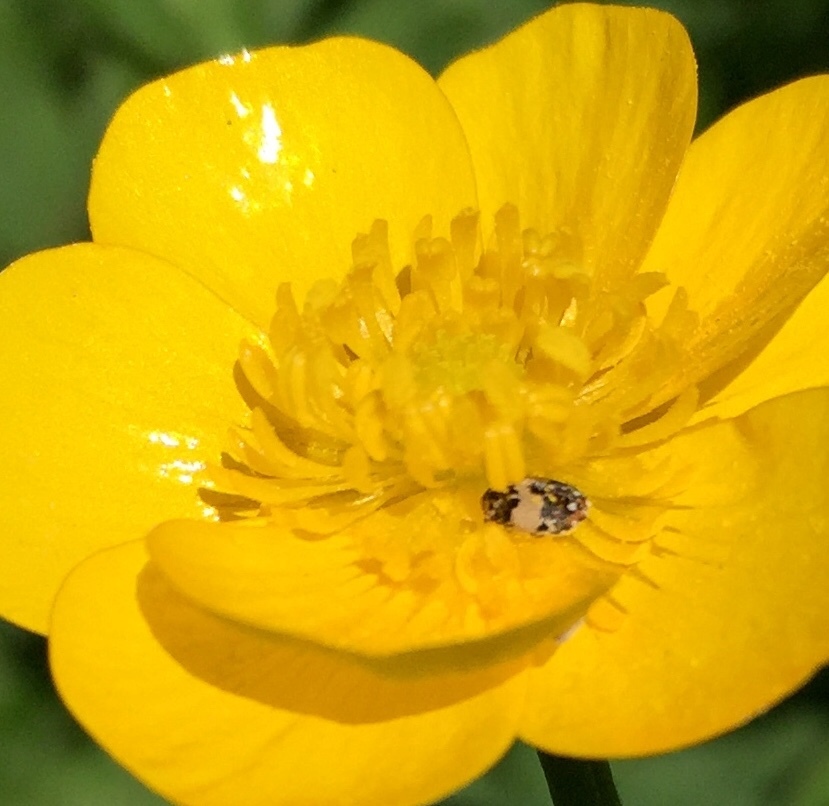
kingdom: Animalia
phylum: Arthropoda
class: Insecta
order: Coleoptera
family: Dermestidae
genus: Anthrenus
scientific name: Anthrenus isabellinus
